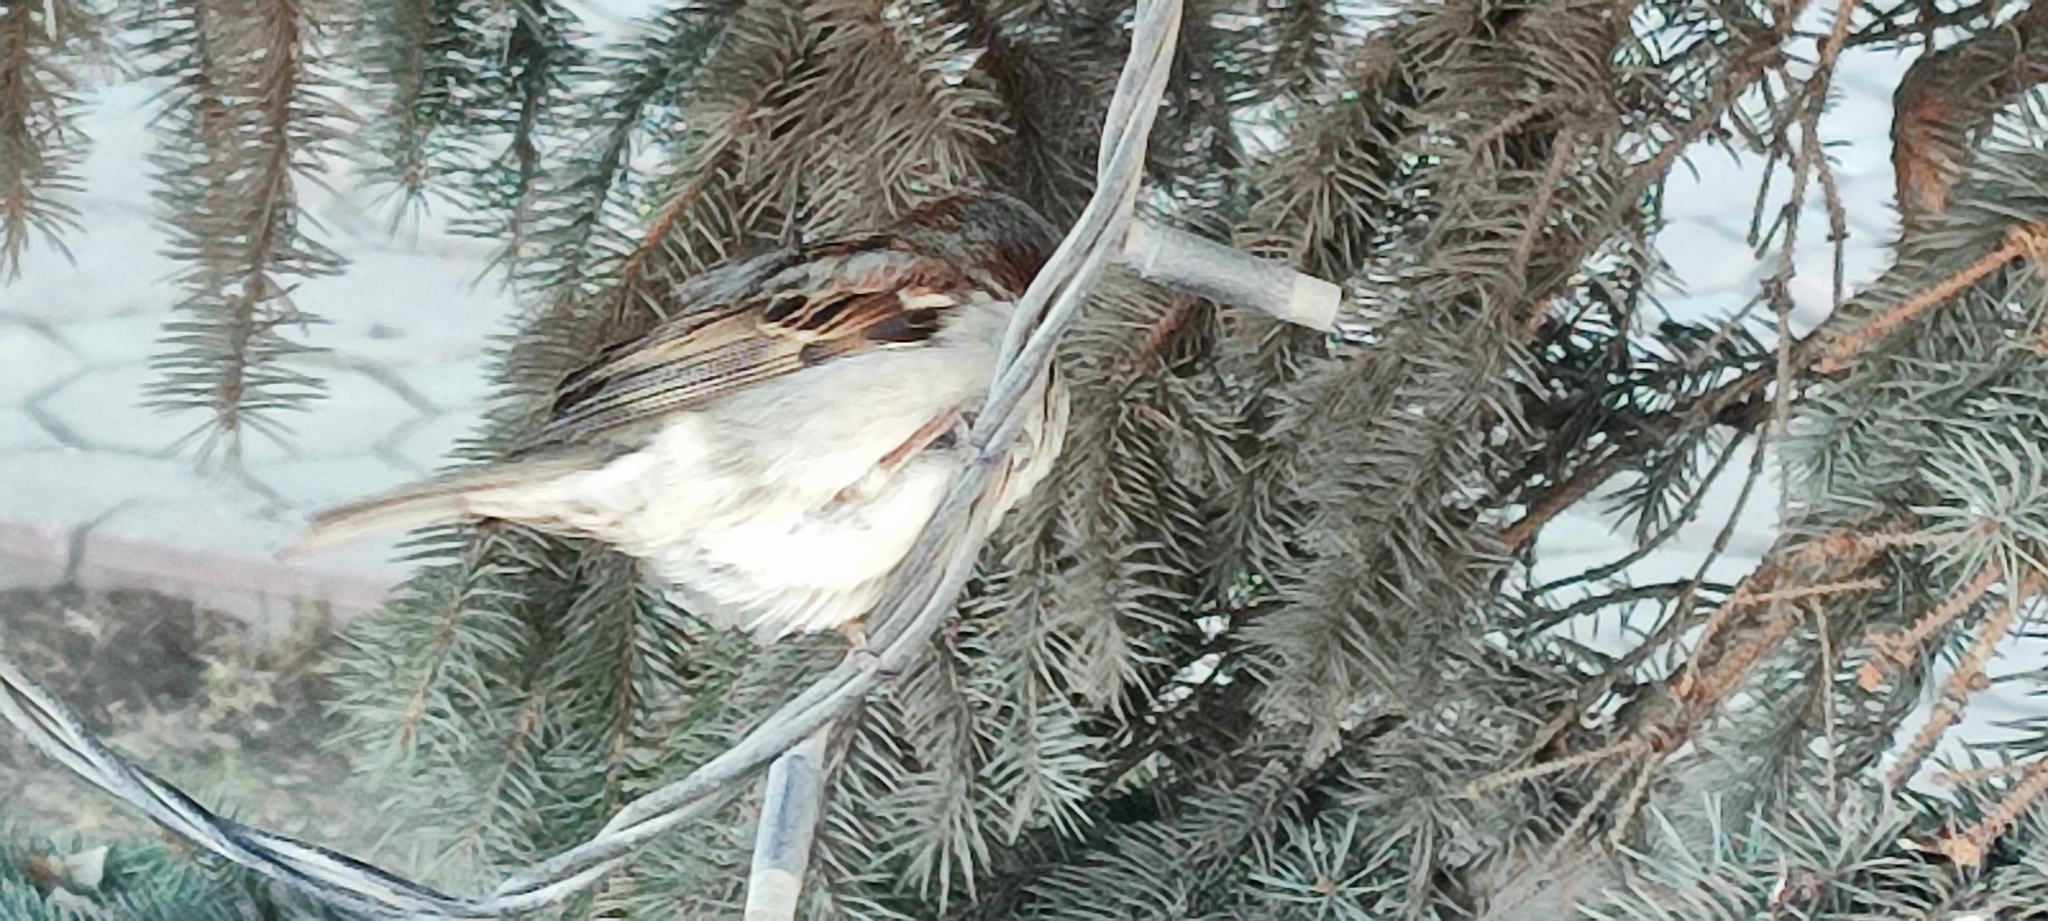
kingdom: Animalia
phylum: Chordata
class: Aves
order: Passeriformes
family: Passeridae
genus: Passer
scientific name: Passer domesticus
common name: House sparrow
